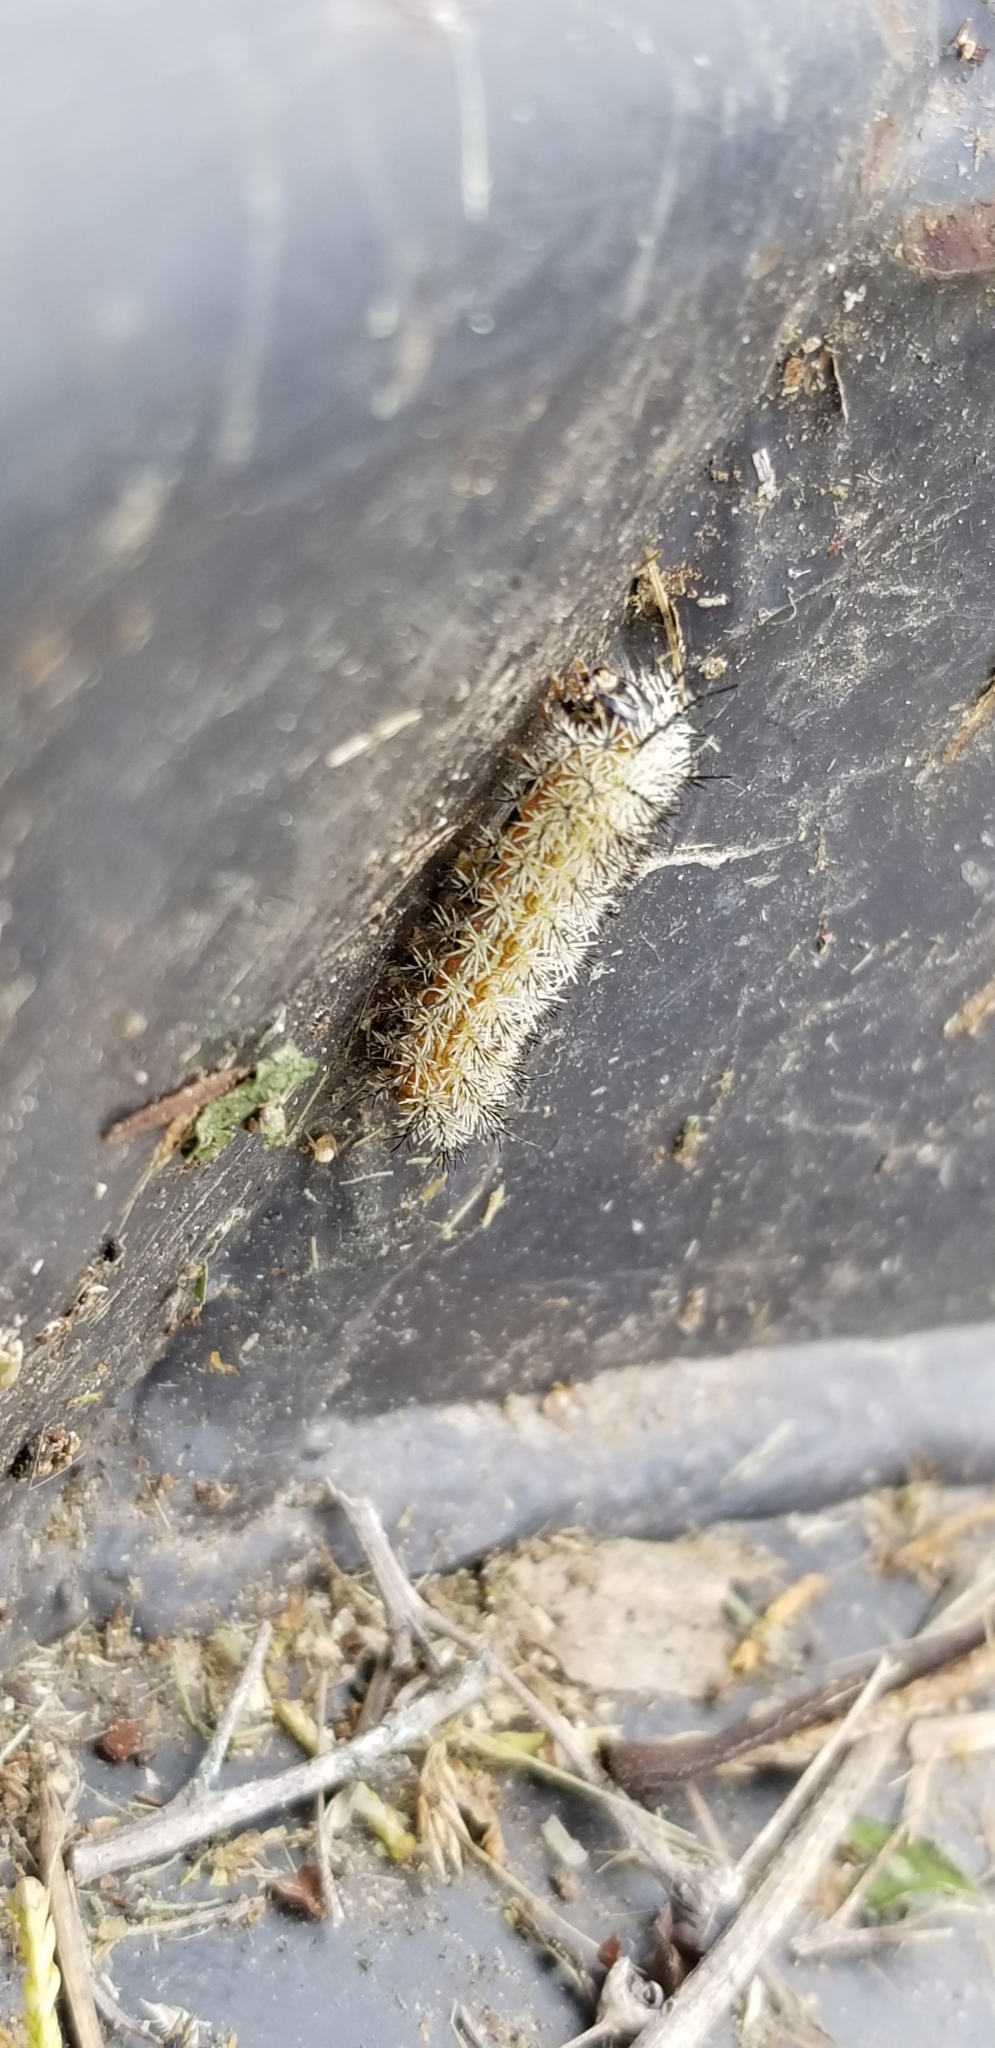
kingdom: Animalia
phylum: Arthropoda
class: Insecta
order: Lepidoptera
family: Saturniidae
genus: Automeris
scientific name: Automeris io
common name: Io moth
